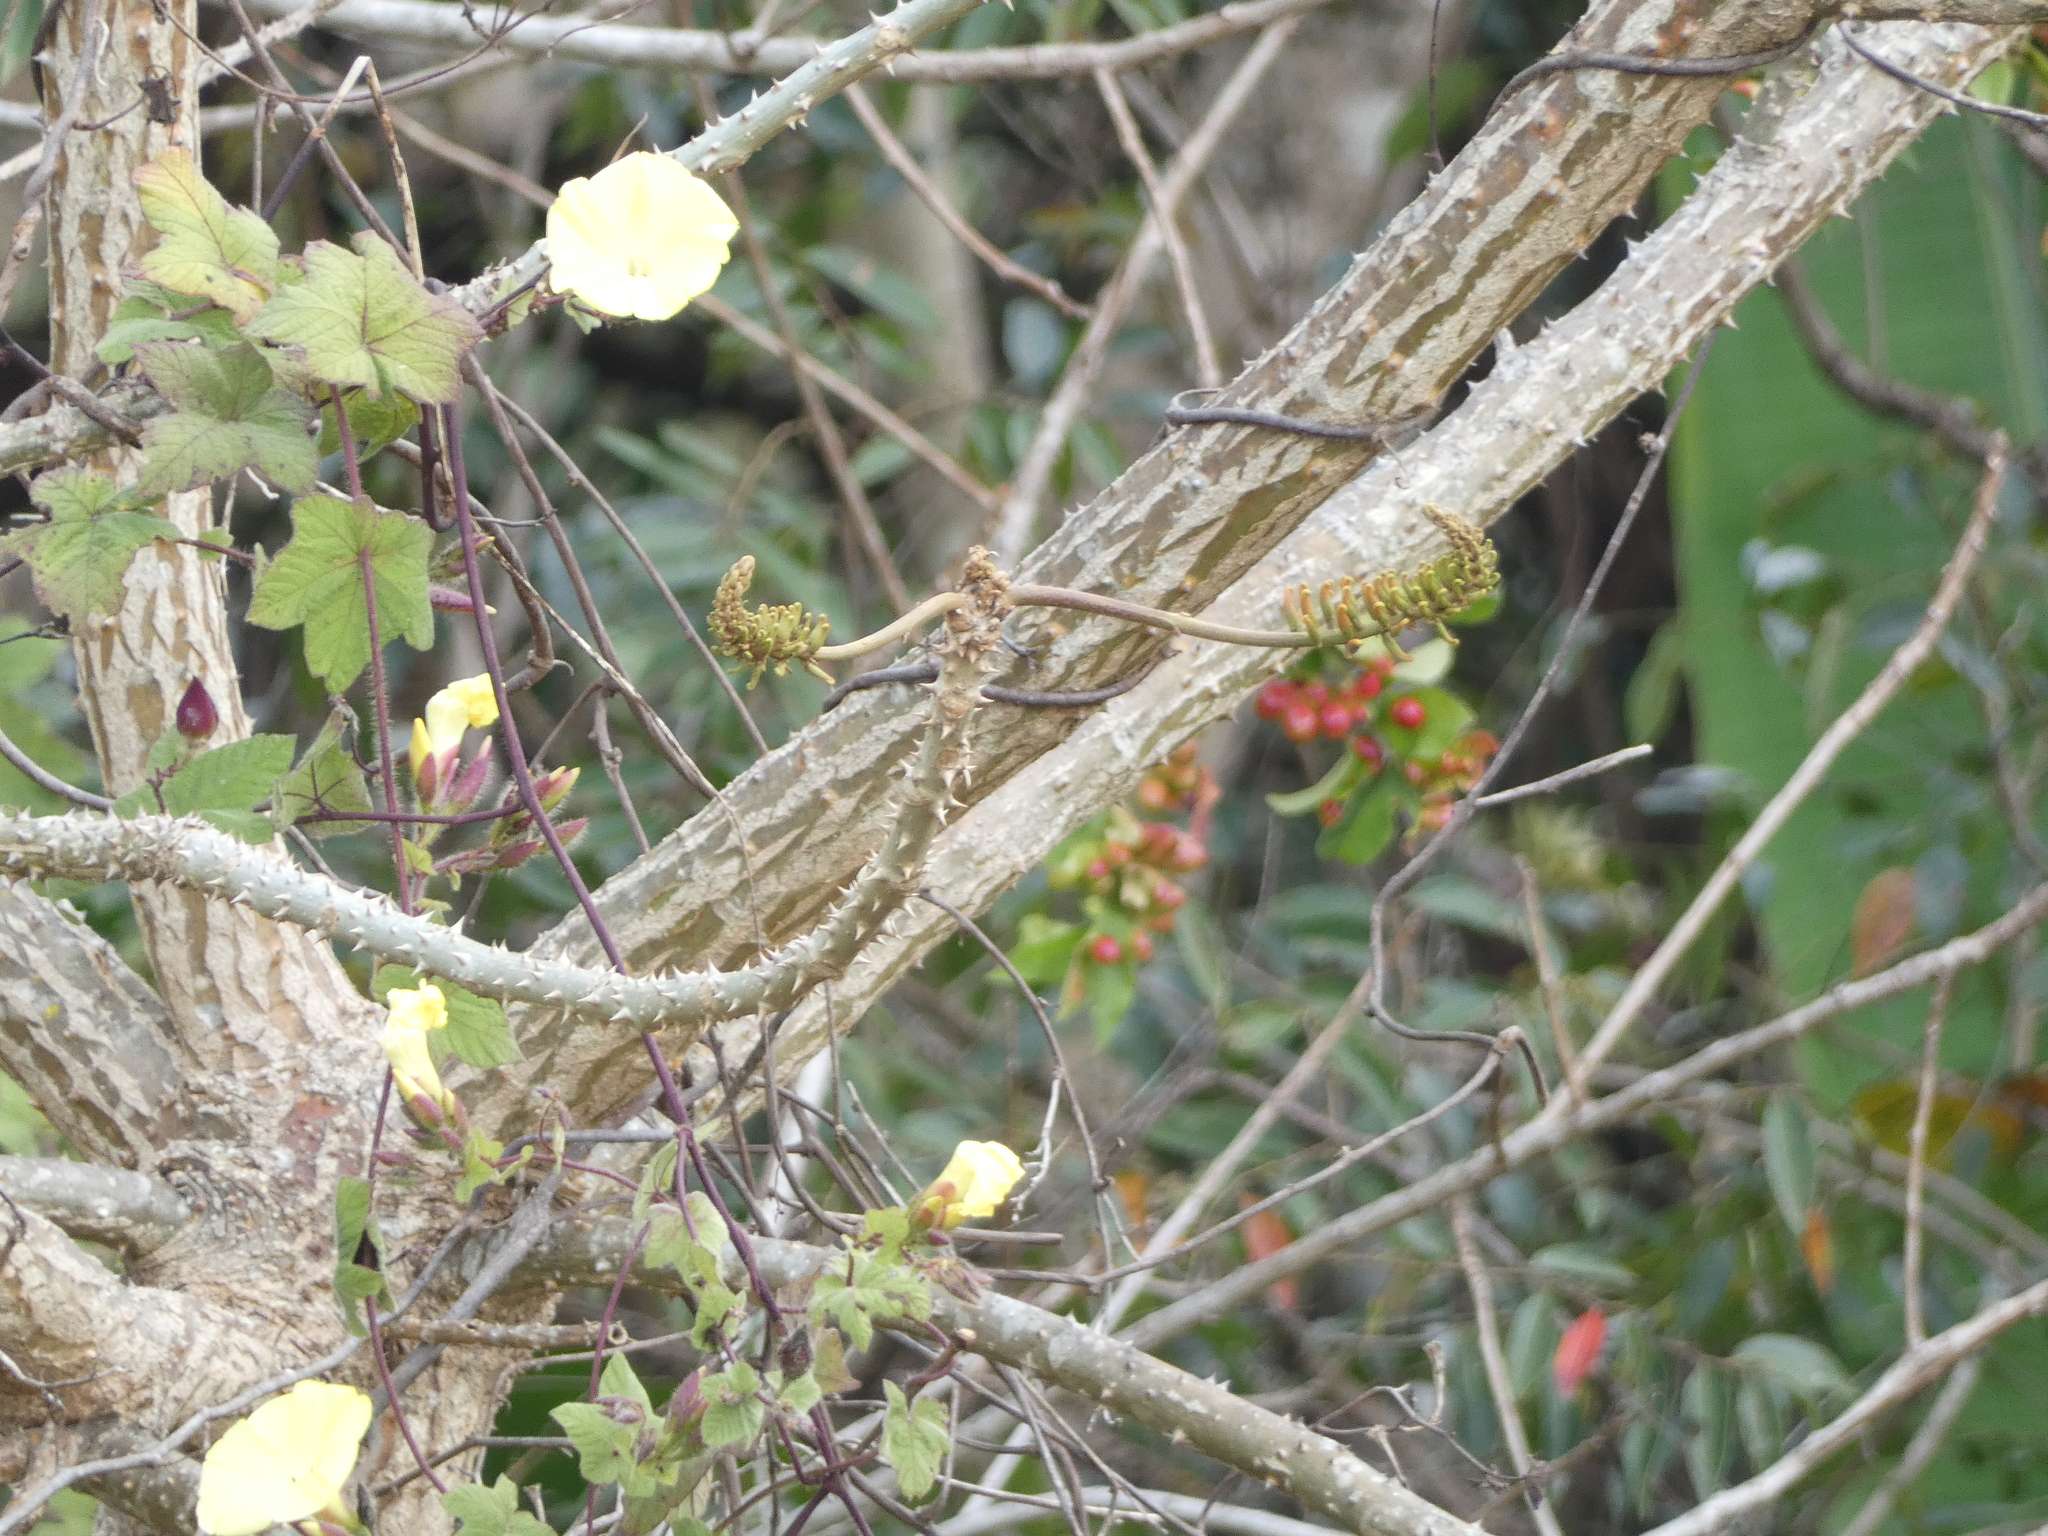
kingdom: Plantae
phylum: Tracheophyta
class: Magnoliopsida
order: Solanales
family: Convolvulaceae
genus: Distimake
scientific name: Distimake
